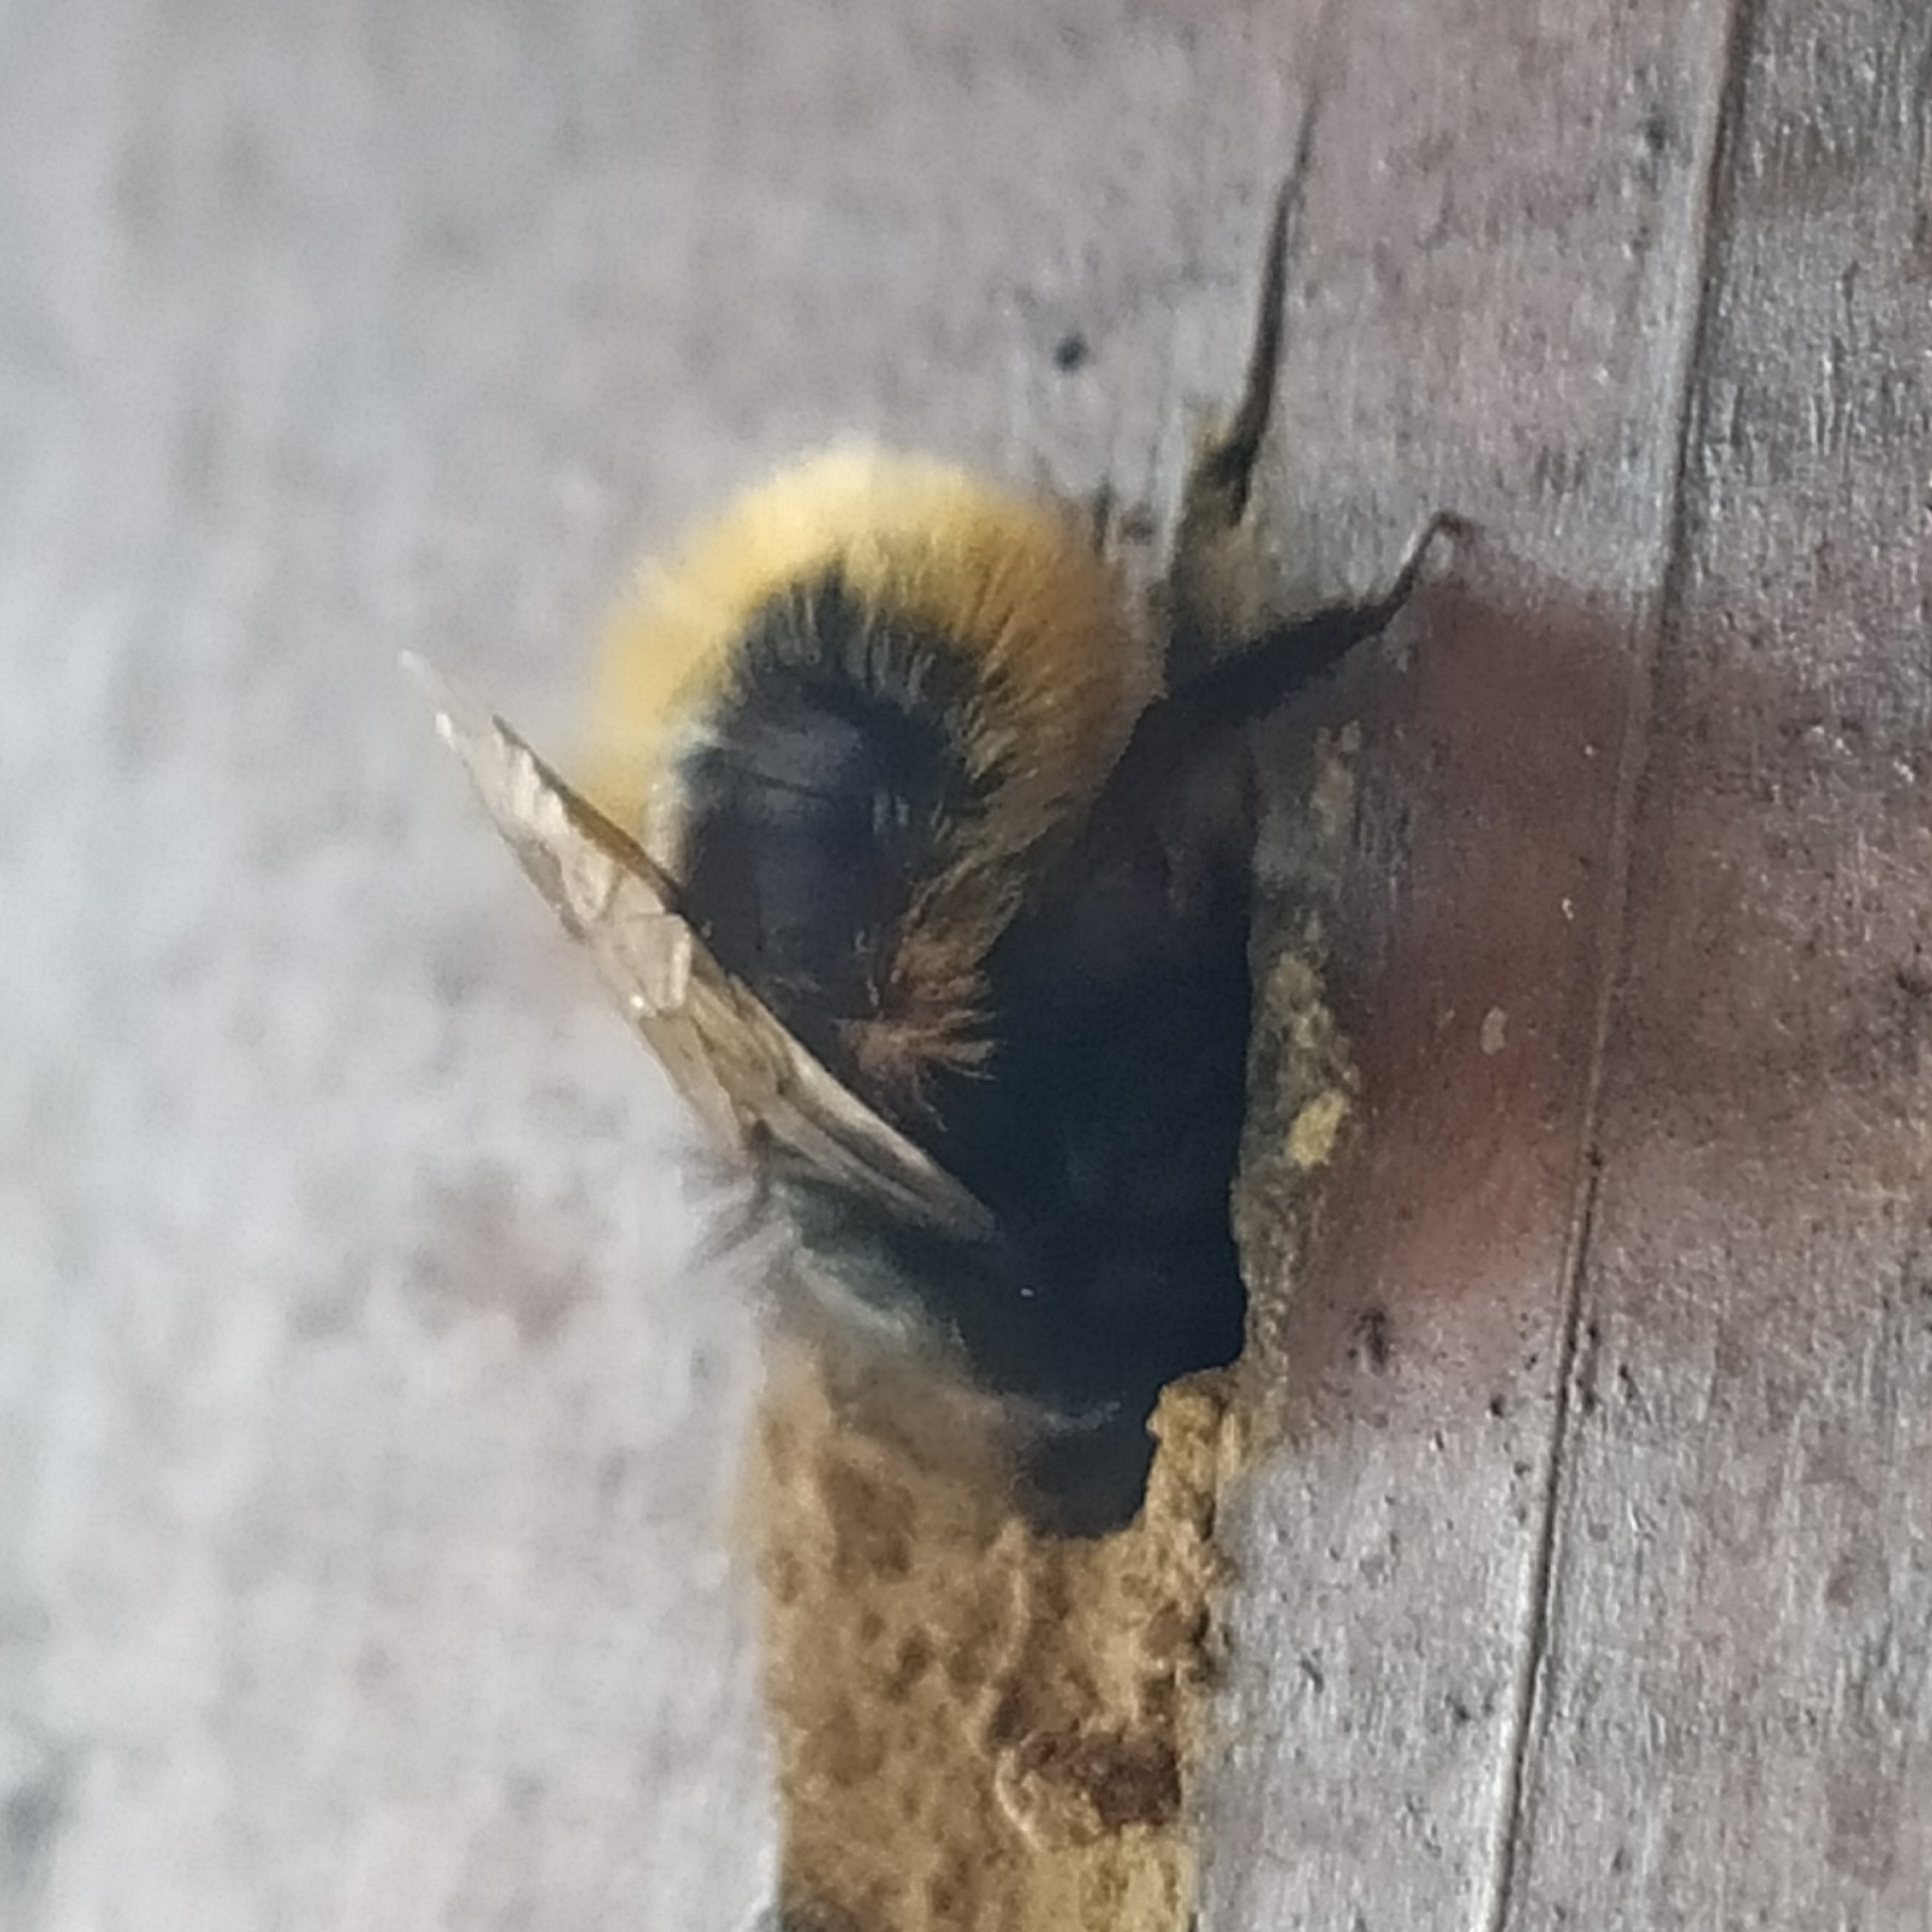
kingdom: Animalia
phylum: Arthropoda
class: Insecta
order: Hymenoptera
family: Megachilidae
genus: Osmia
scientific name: Osmia cornuta
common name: Mason bee
